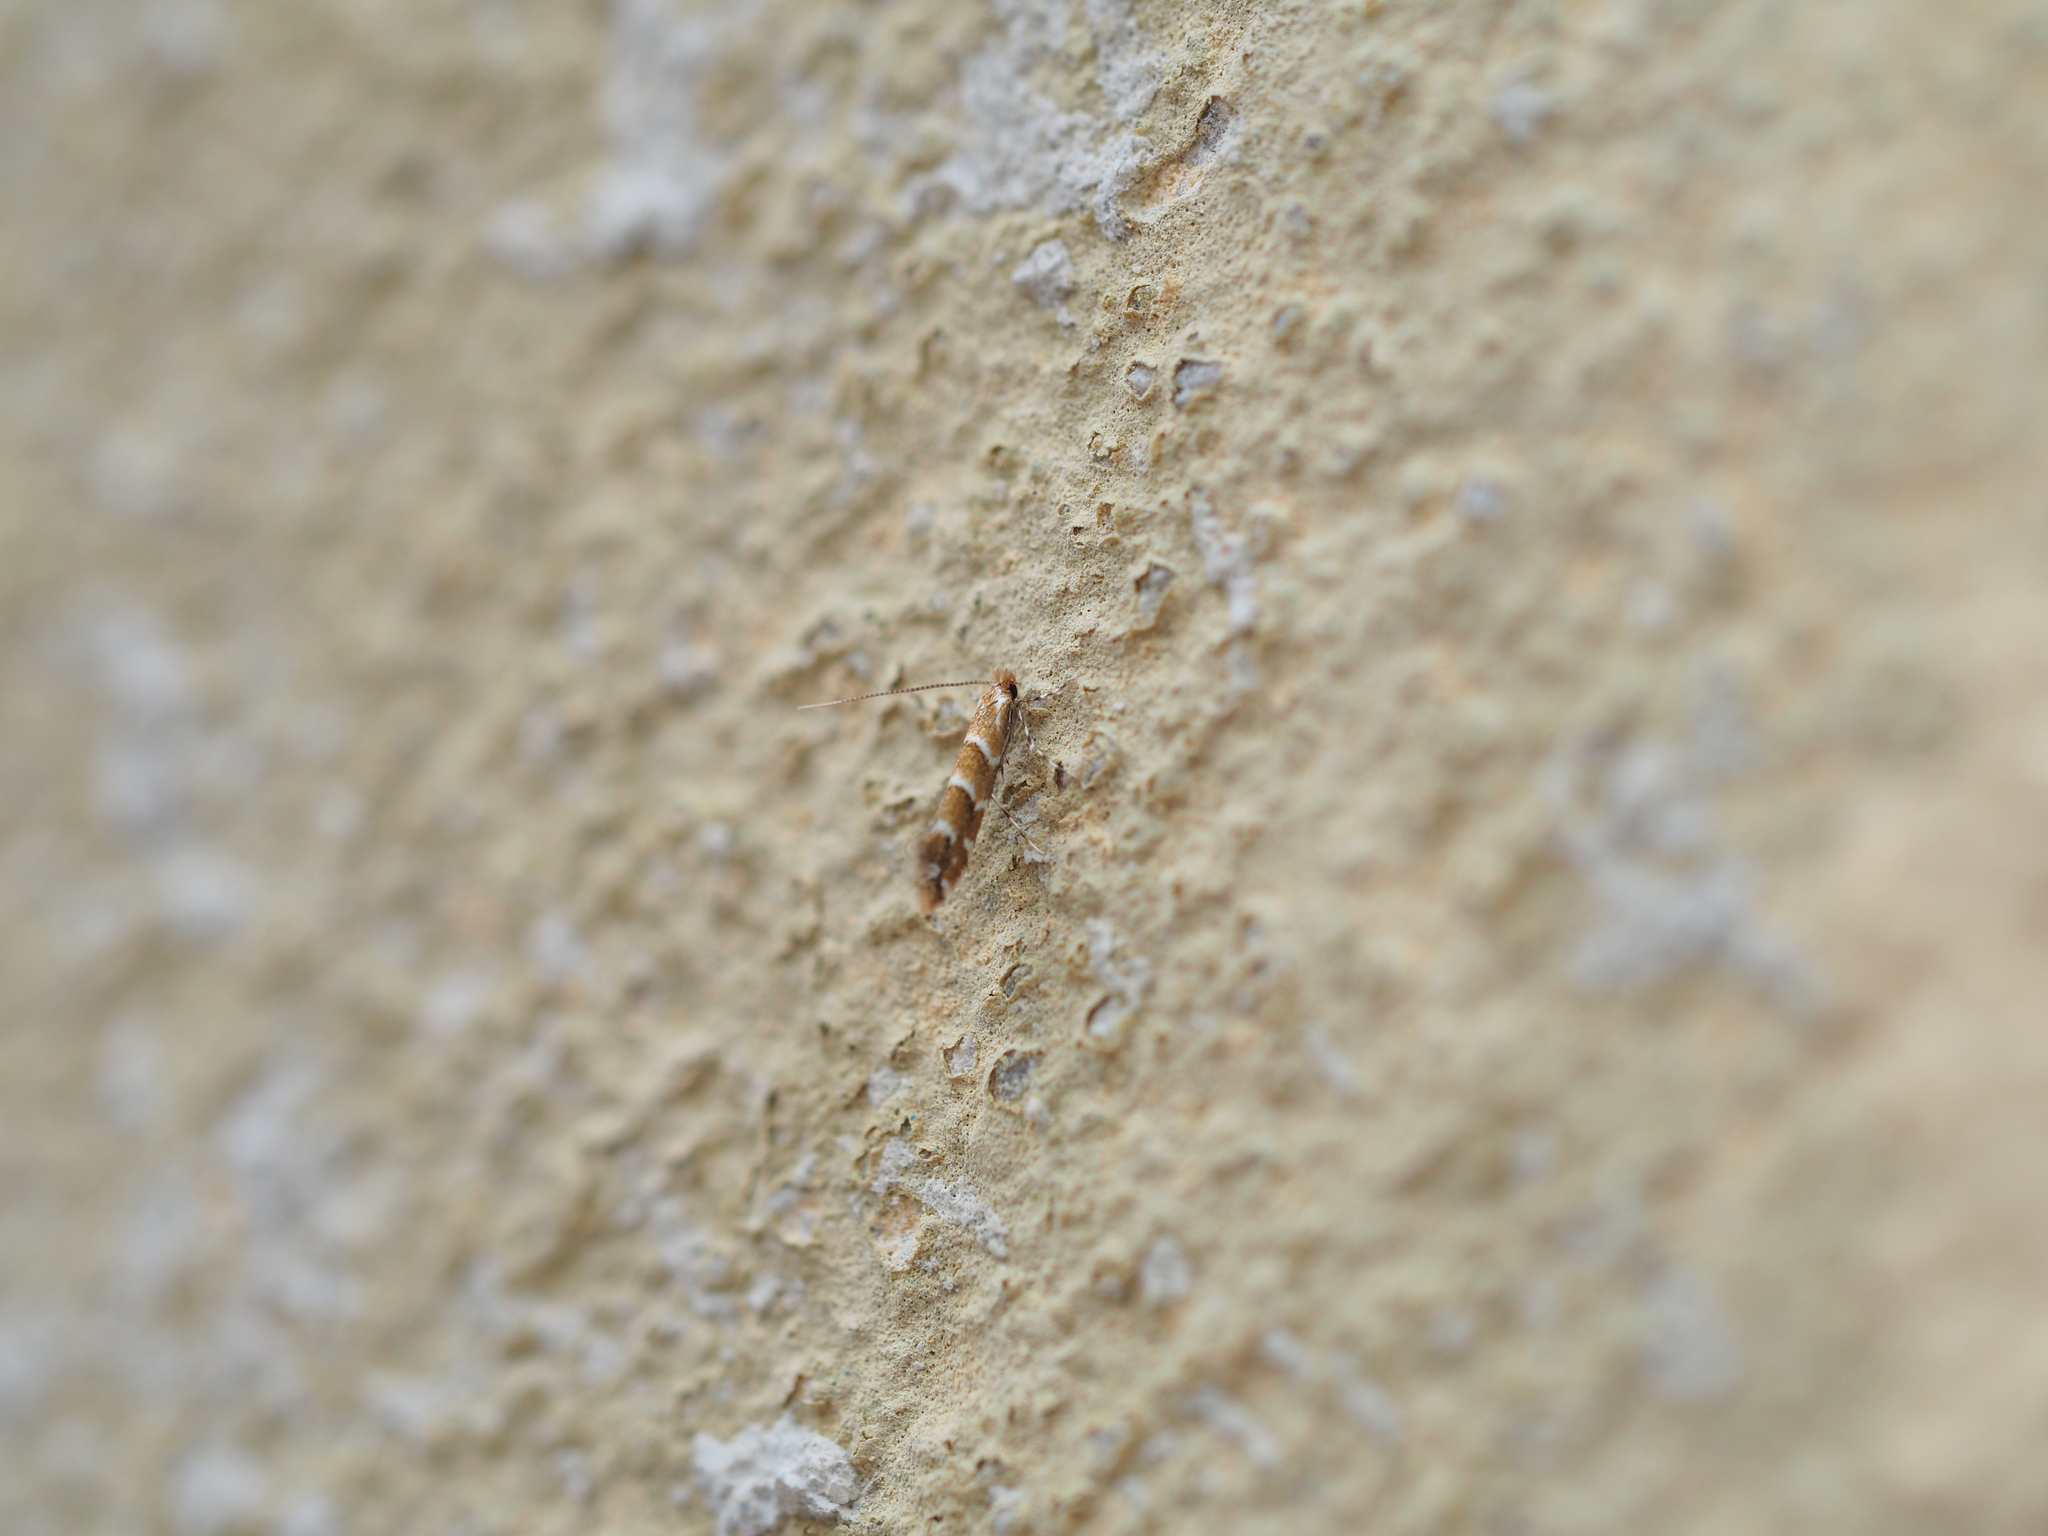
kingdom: Animalia
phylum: Arthropoda
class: Insecta
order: Lepidoptera
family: Gracillariidae
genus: Cameraria
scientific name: Cameraria ohridella
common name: Horse-chestnut leaf-miner
